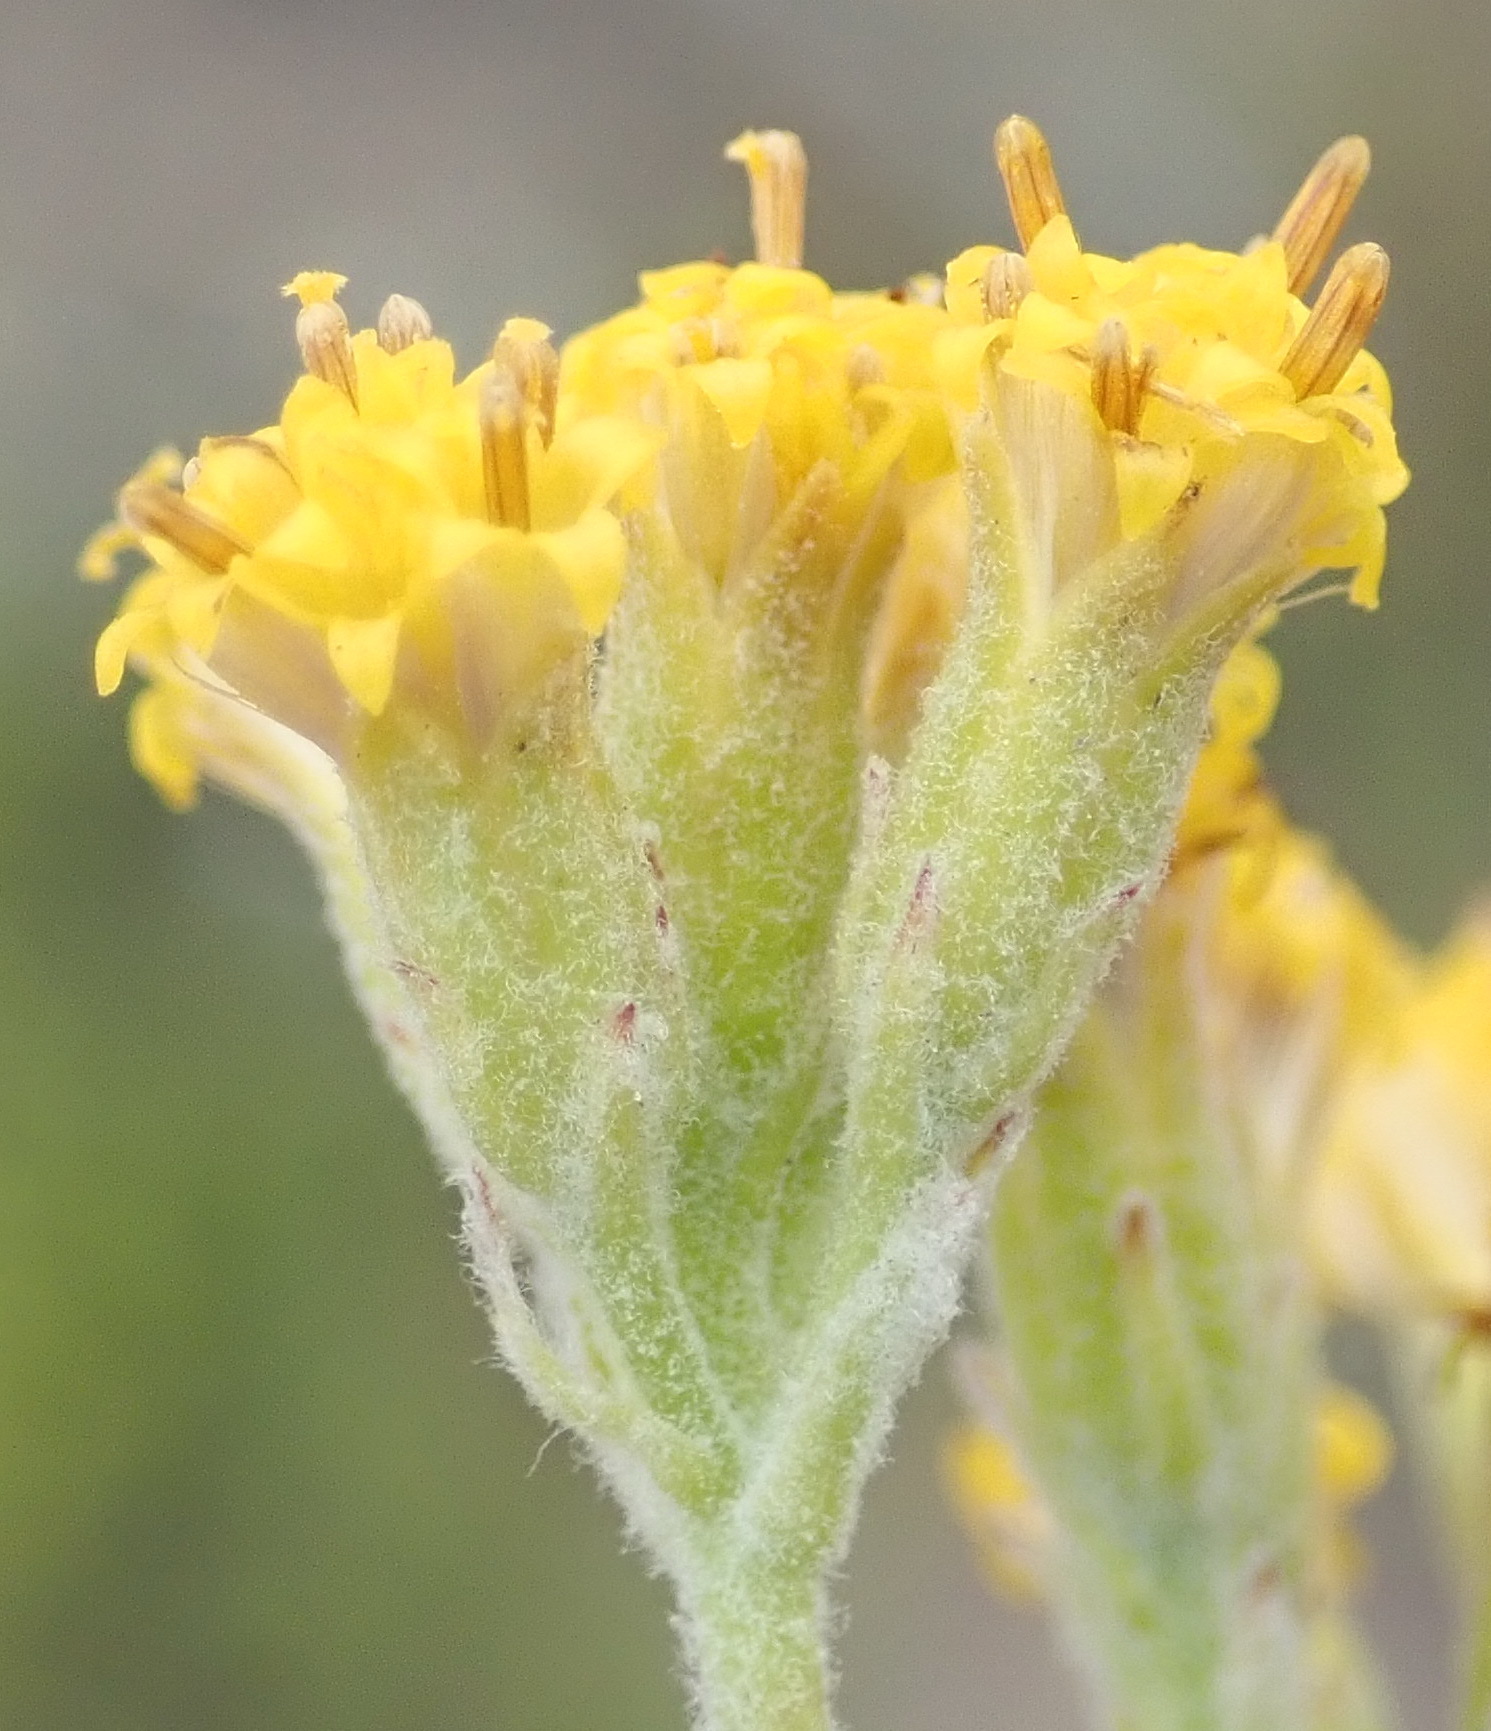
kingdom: Plantae
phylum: Tracheophyta
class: Magnoliopsida
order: Asterales
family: Asteraceae
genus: Senecio
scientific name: Senecio pauciflosculosus
